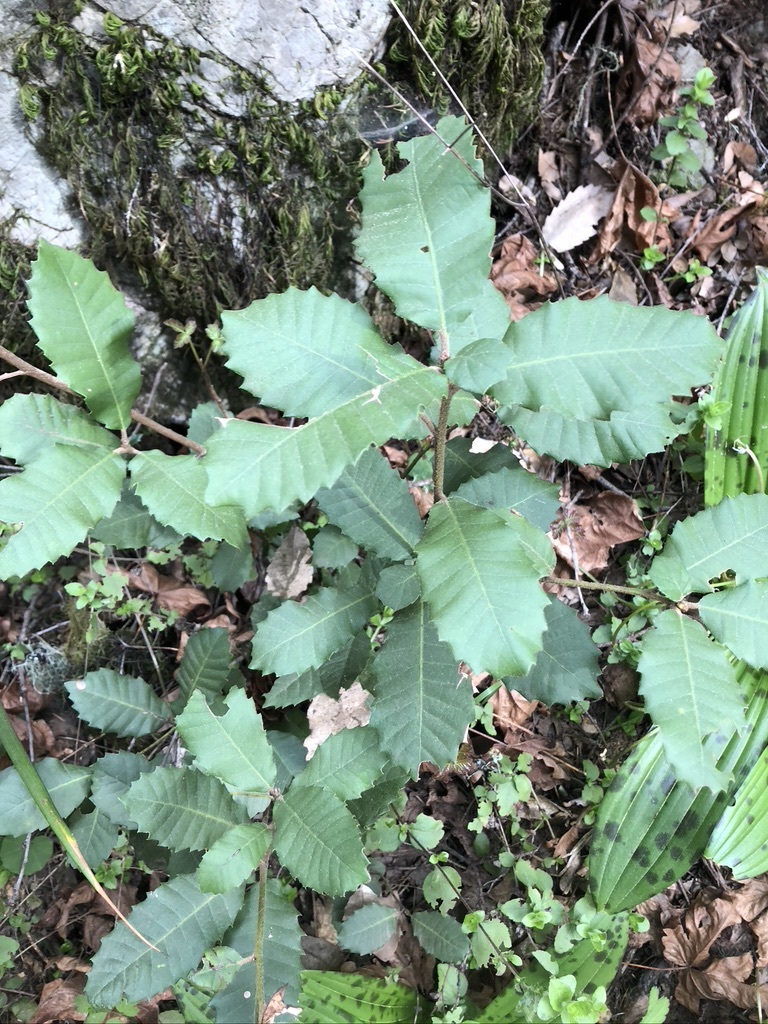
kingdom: Plantae
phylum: Tracheophyta
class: Magnoliopsida
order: Fagales
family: Fagaceae
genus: Notholithocarpus
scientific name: Notholithocarpus densiflorus
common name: Tan bark oak
